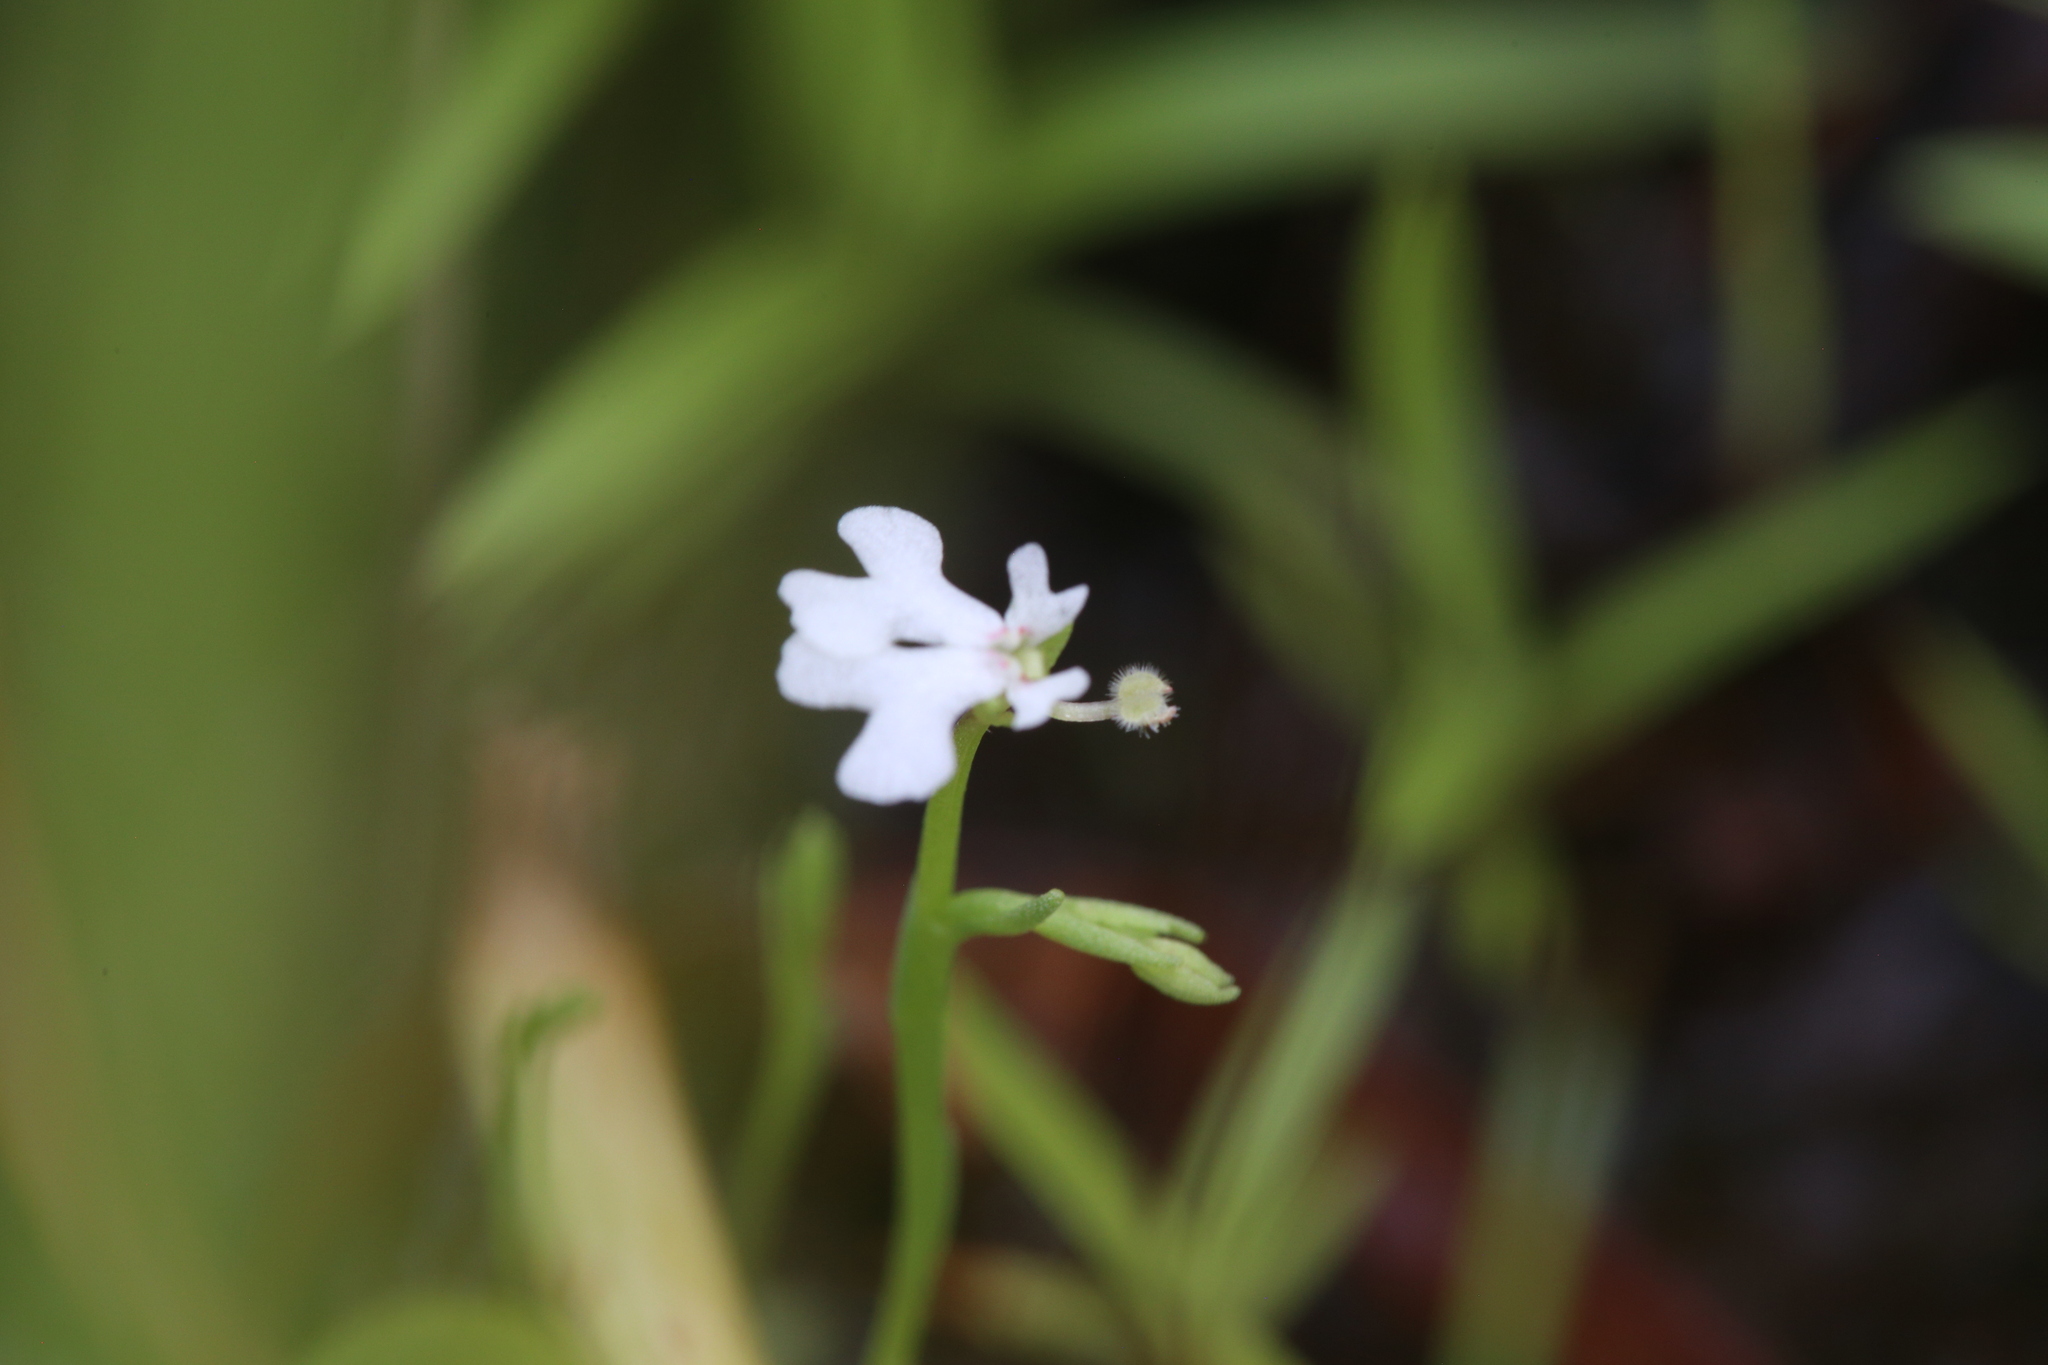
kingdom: Plantae
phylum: Tracheophyta
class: Magnoliopsida
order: Asterales
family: Stylidiaceae
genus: Stylidium
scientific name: Stylidium exiguum
